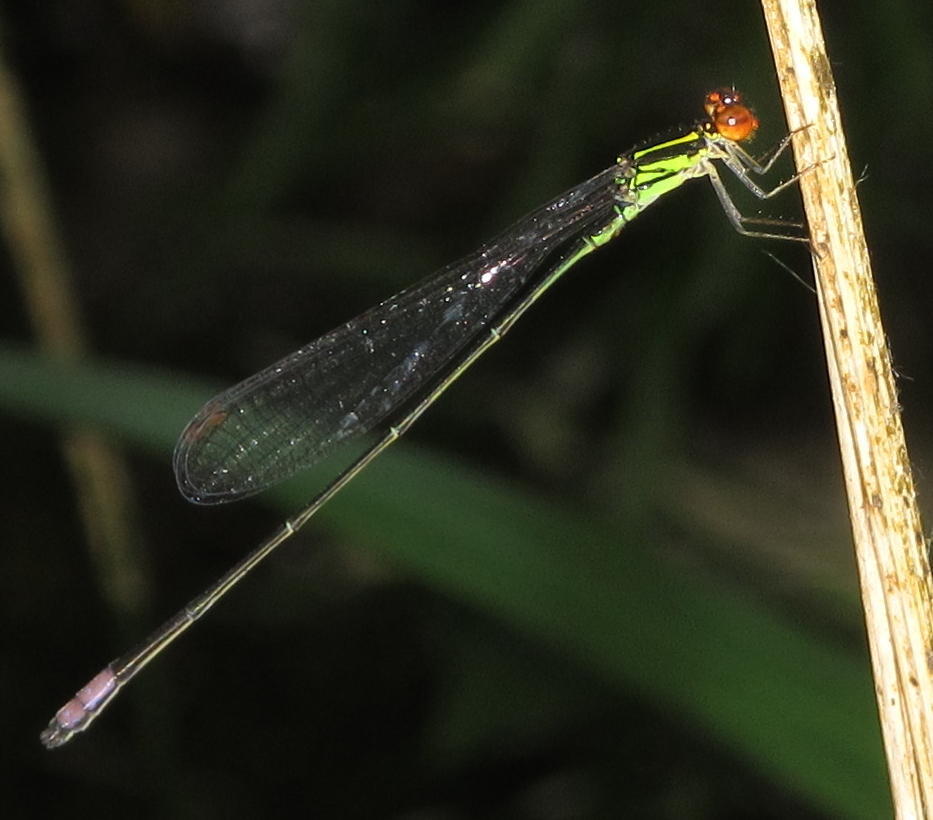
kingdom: Animalia
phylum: Arthropoda
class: Insecta
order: Odonata
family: Coenagrionidae
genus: Pseudagrion
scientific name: Pseudagrion hageni
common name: Painted sprite
